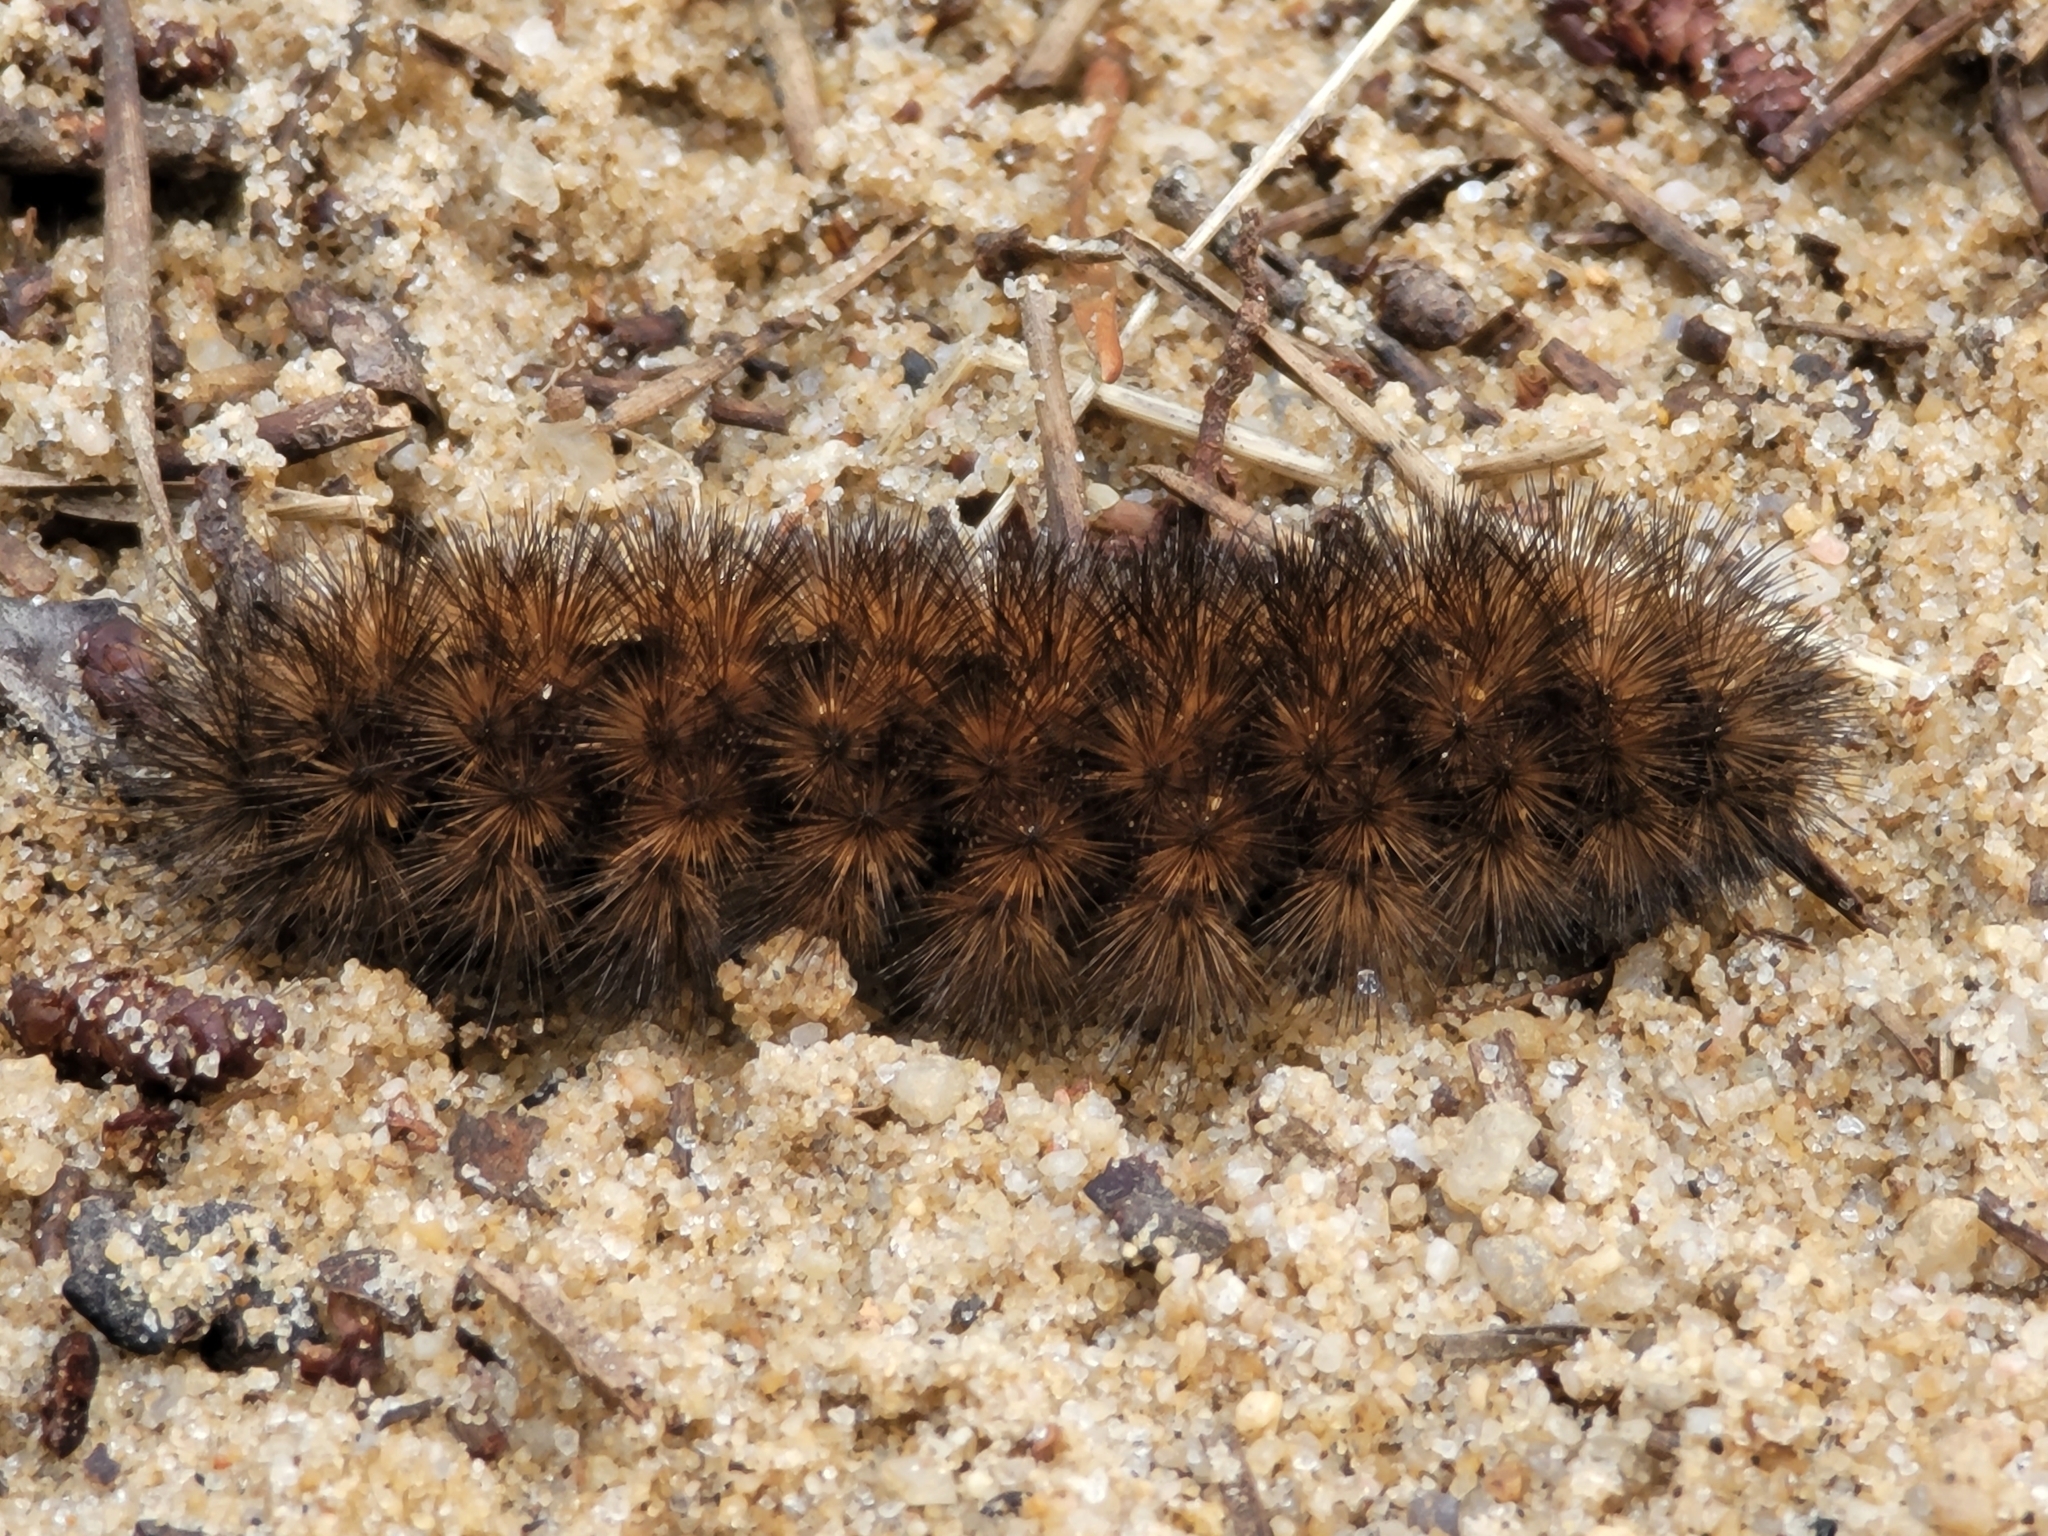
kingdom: Animalia
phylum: Arthropoda
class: Insecta
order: Lepidoptera
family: Erebidae
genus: Pyrrharctia
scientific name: Pyrrharctia isabella
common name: Isabella tiger moth
